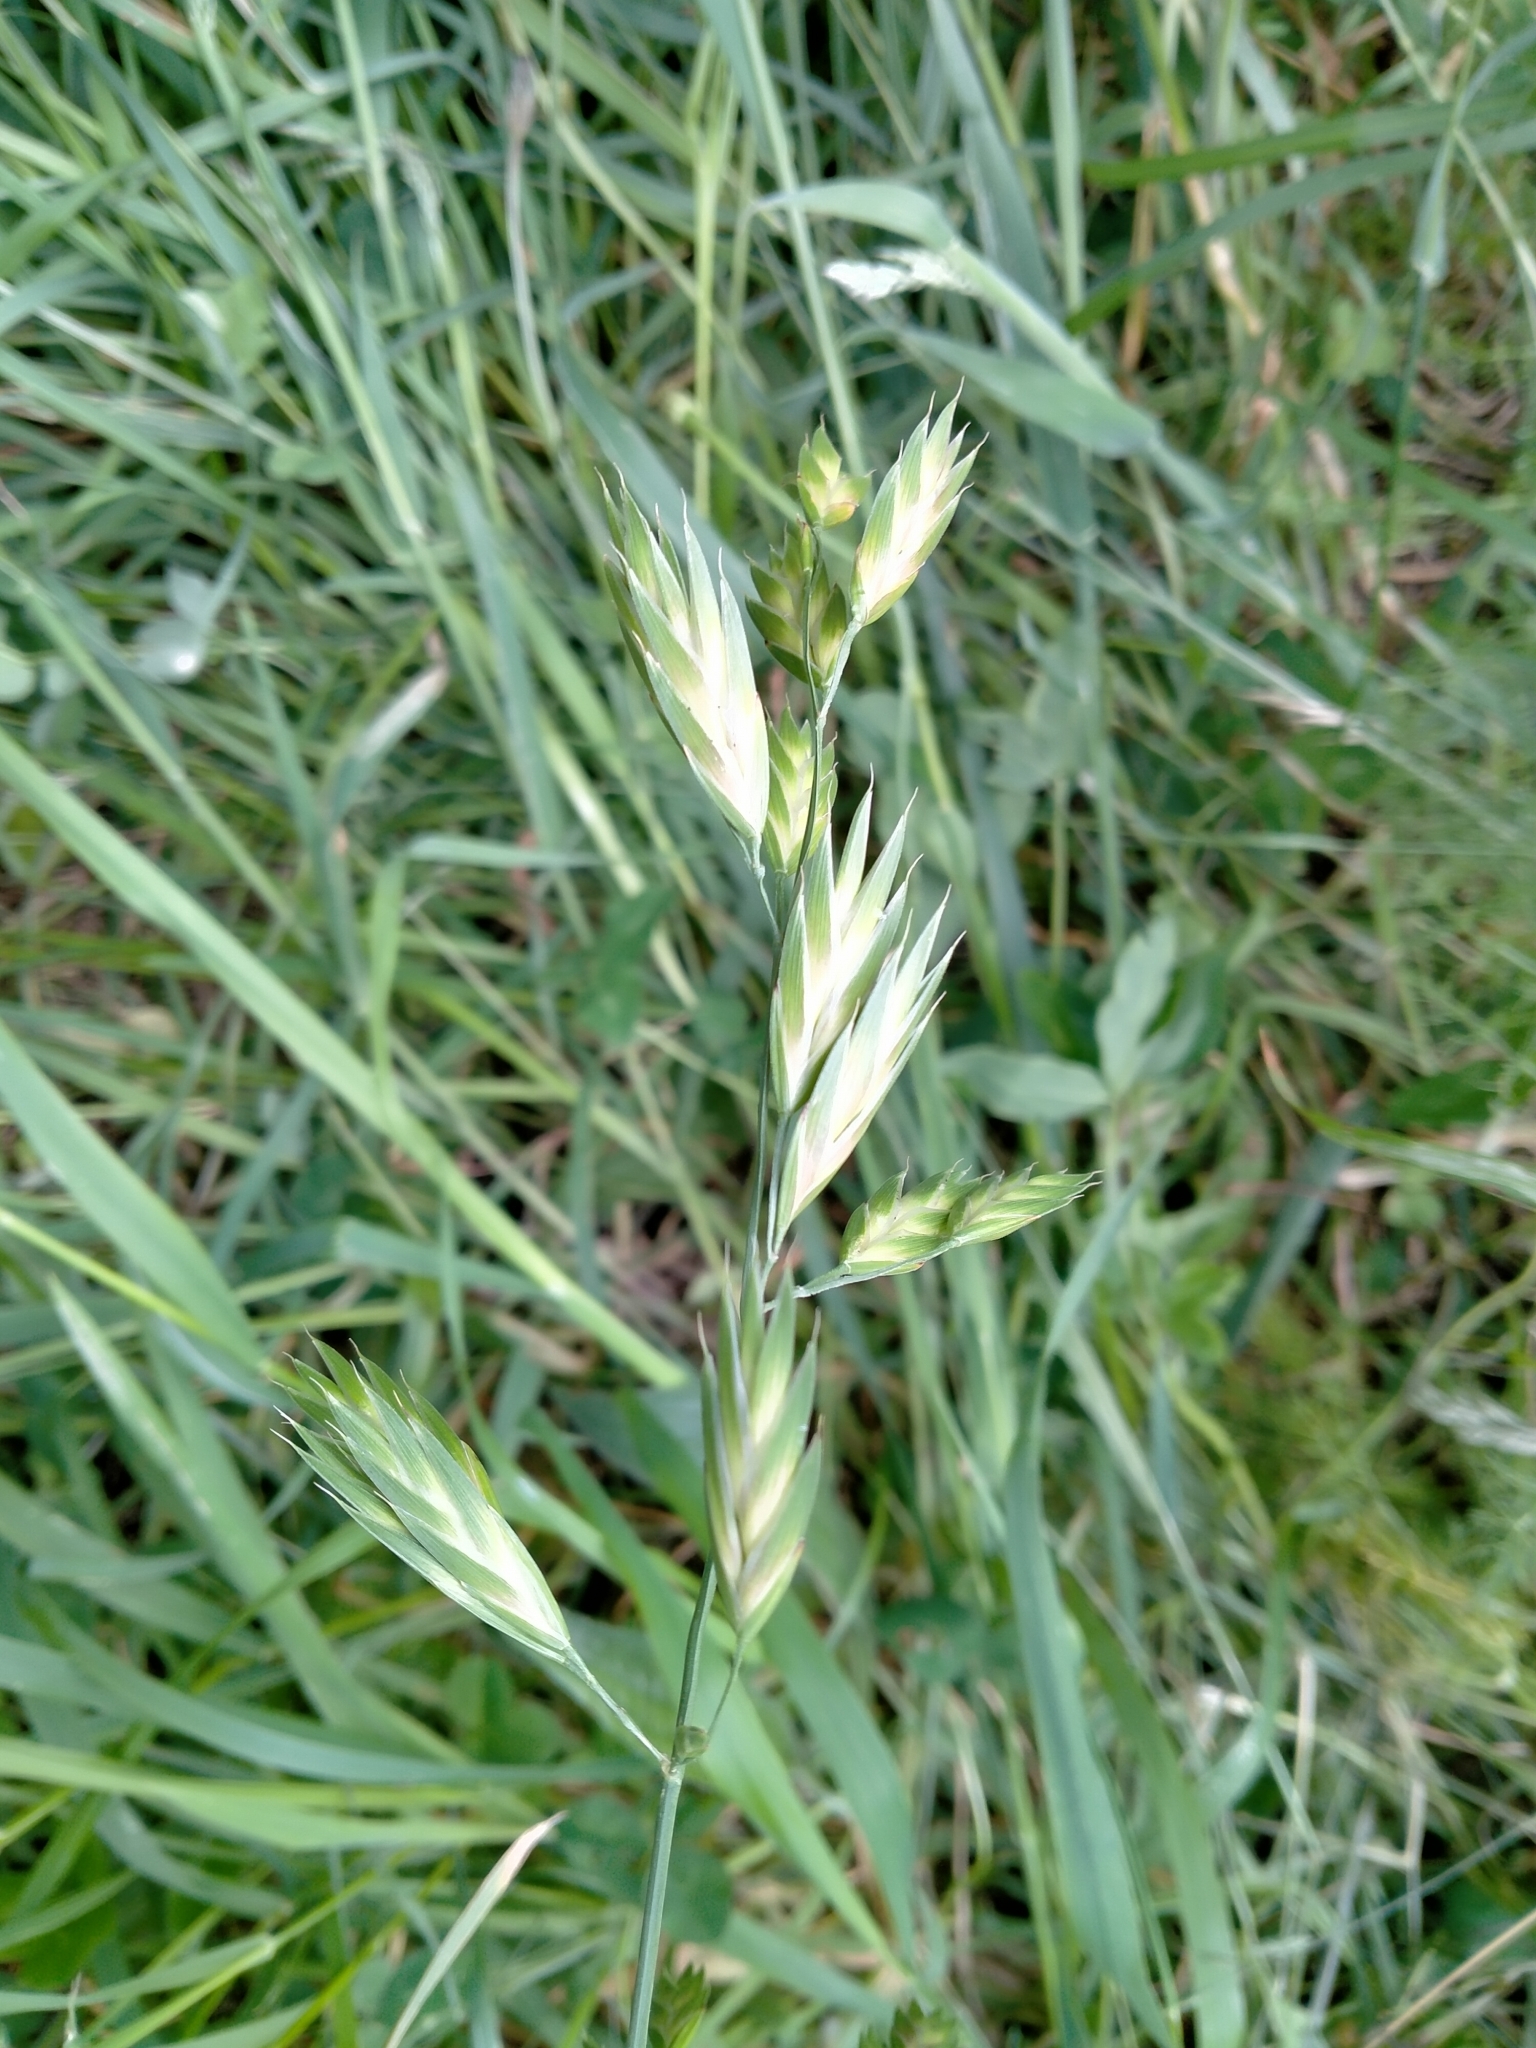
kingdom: Plantae
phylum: Tracheophyta
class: Liliopsida
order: Poales
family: Poaceae
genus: Bromus
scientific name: Bromus catharticus
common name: Rescuegrass
